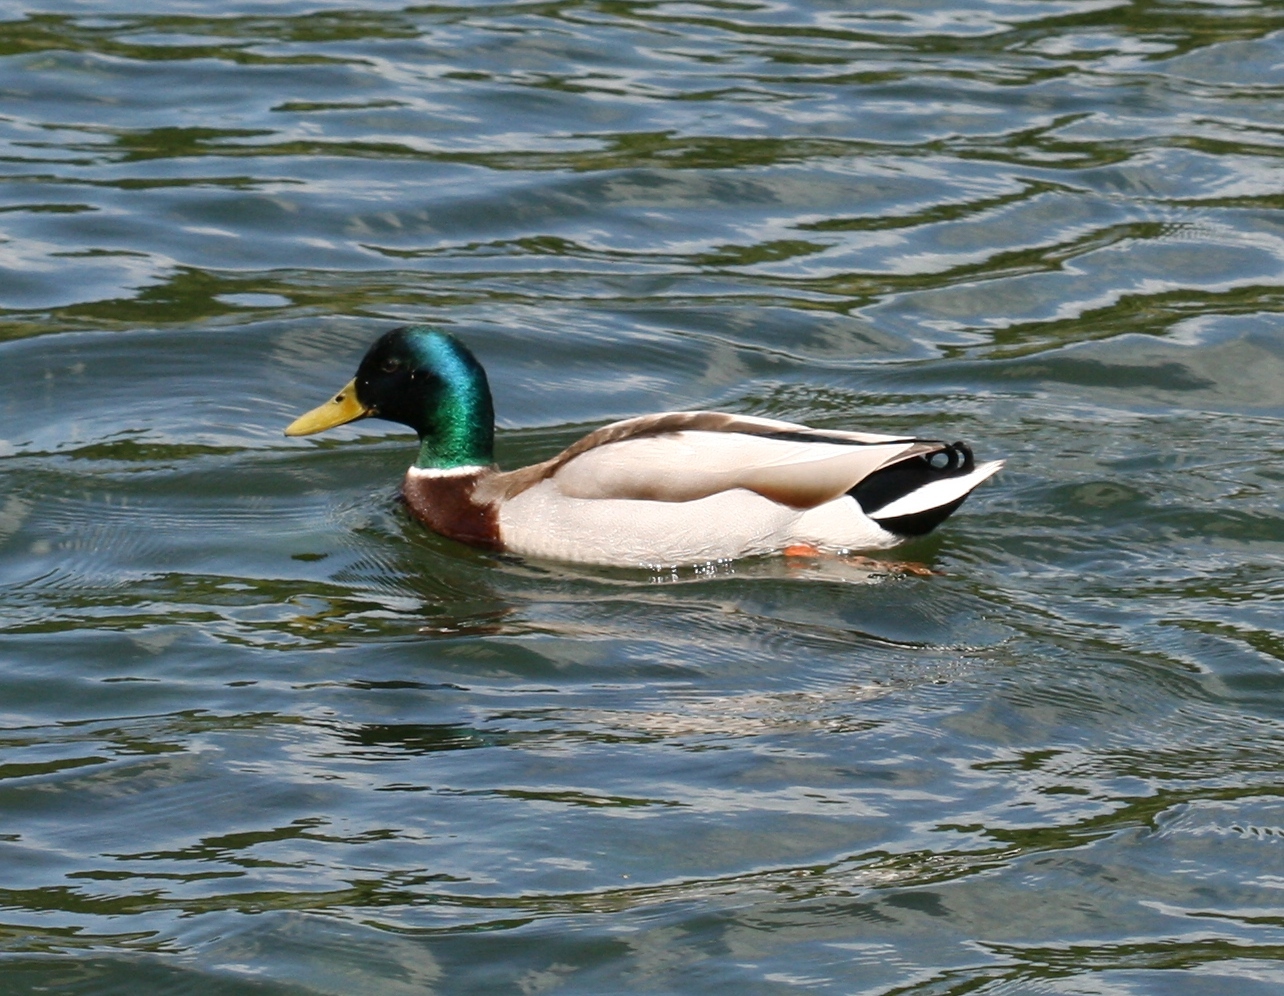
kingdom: Animalia
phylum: Chordata
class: Aves
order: Anseriformes
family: Anatidae
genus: Anas
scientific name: Anas platyrhynchos
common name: Mallard
